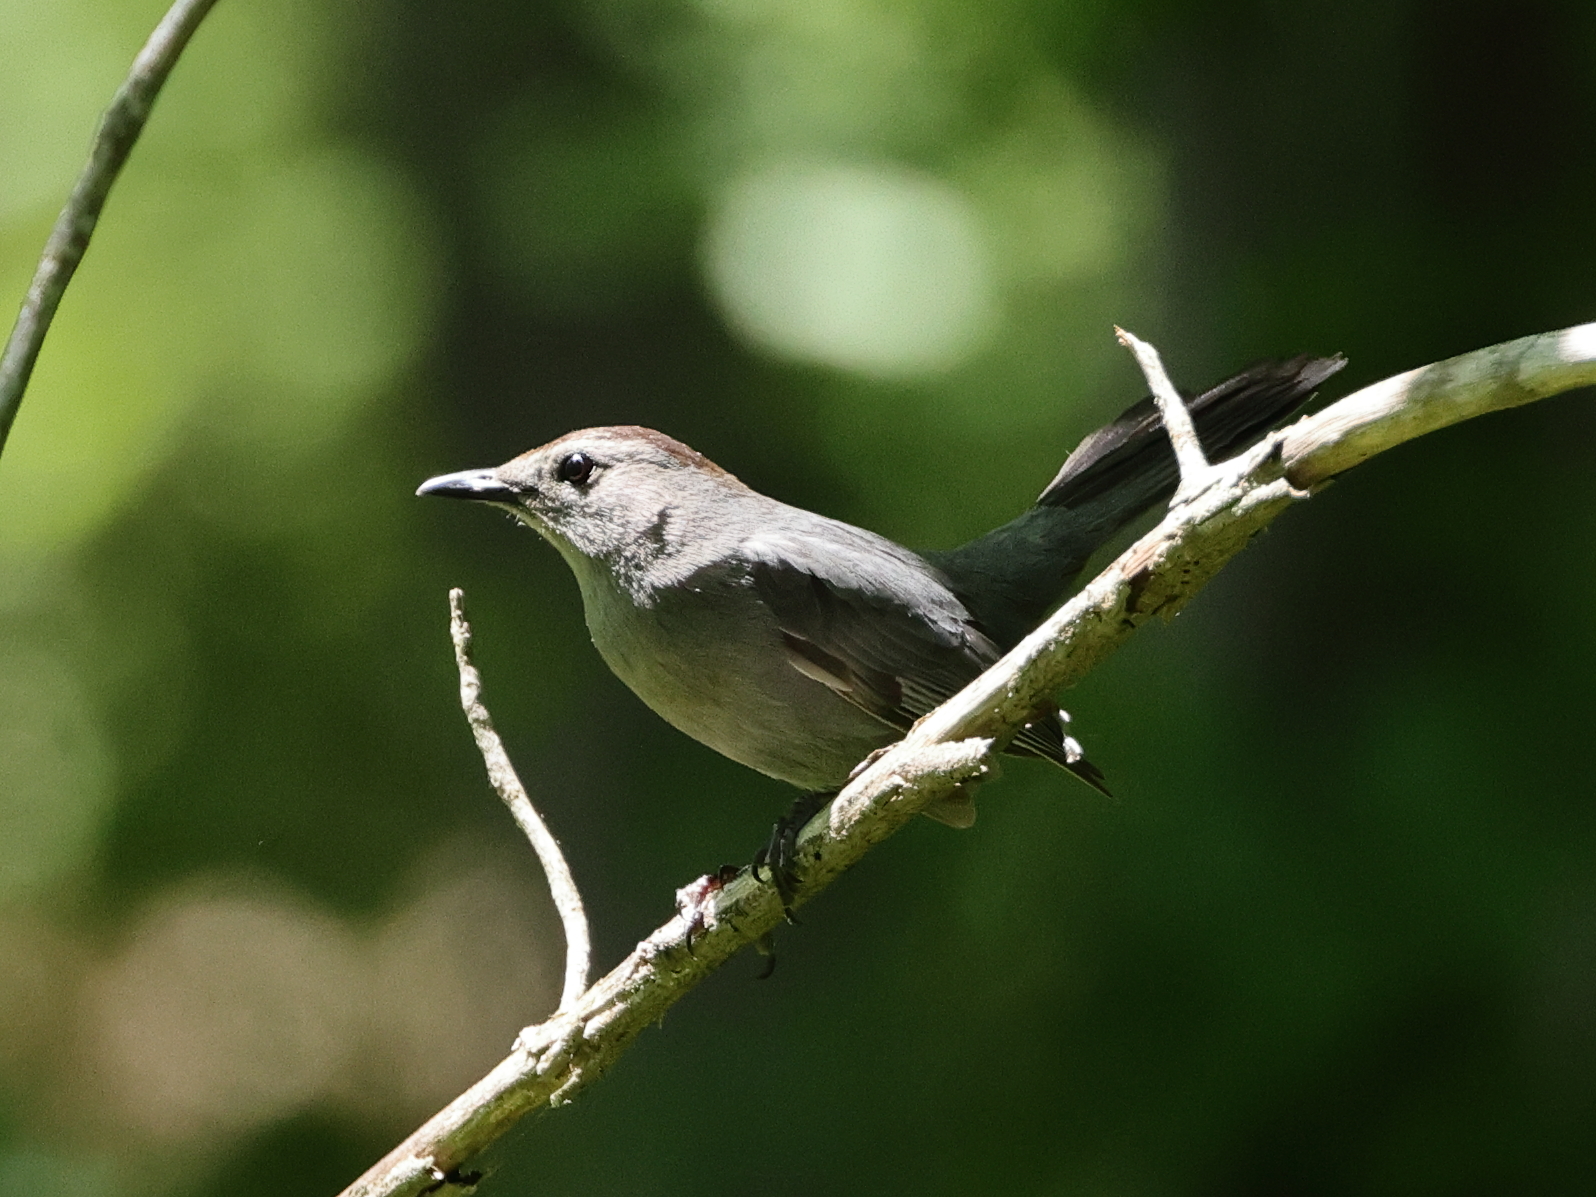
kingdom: Animalia
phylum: Chordata
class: Aves
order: Passeriformes
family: Mimidae
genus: Dumetella
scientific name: Dumetella carolinensis
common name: Gray catbird
